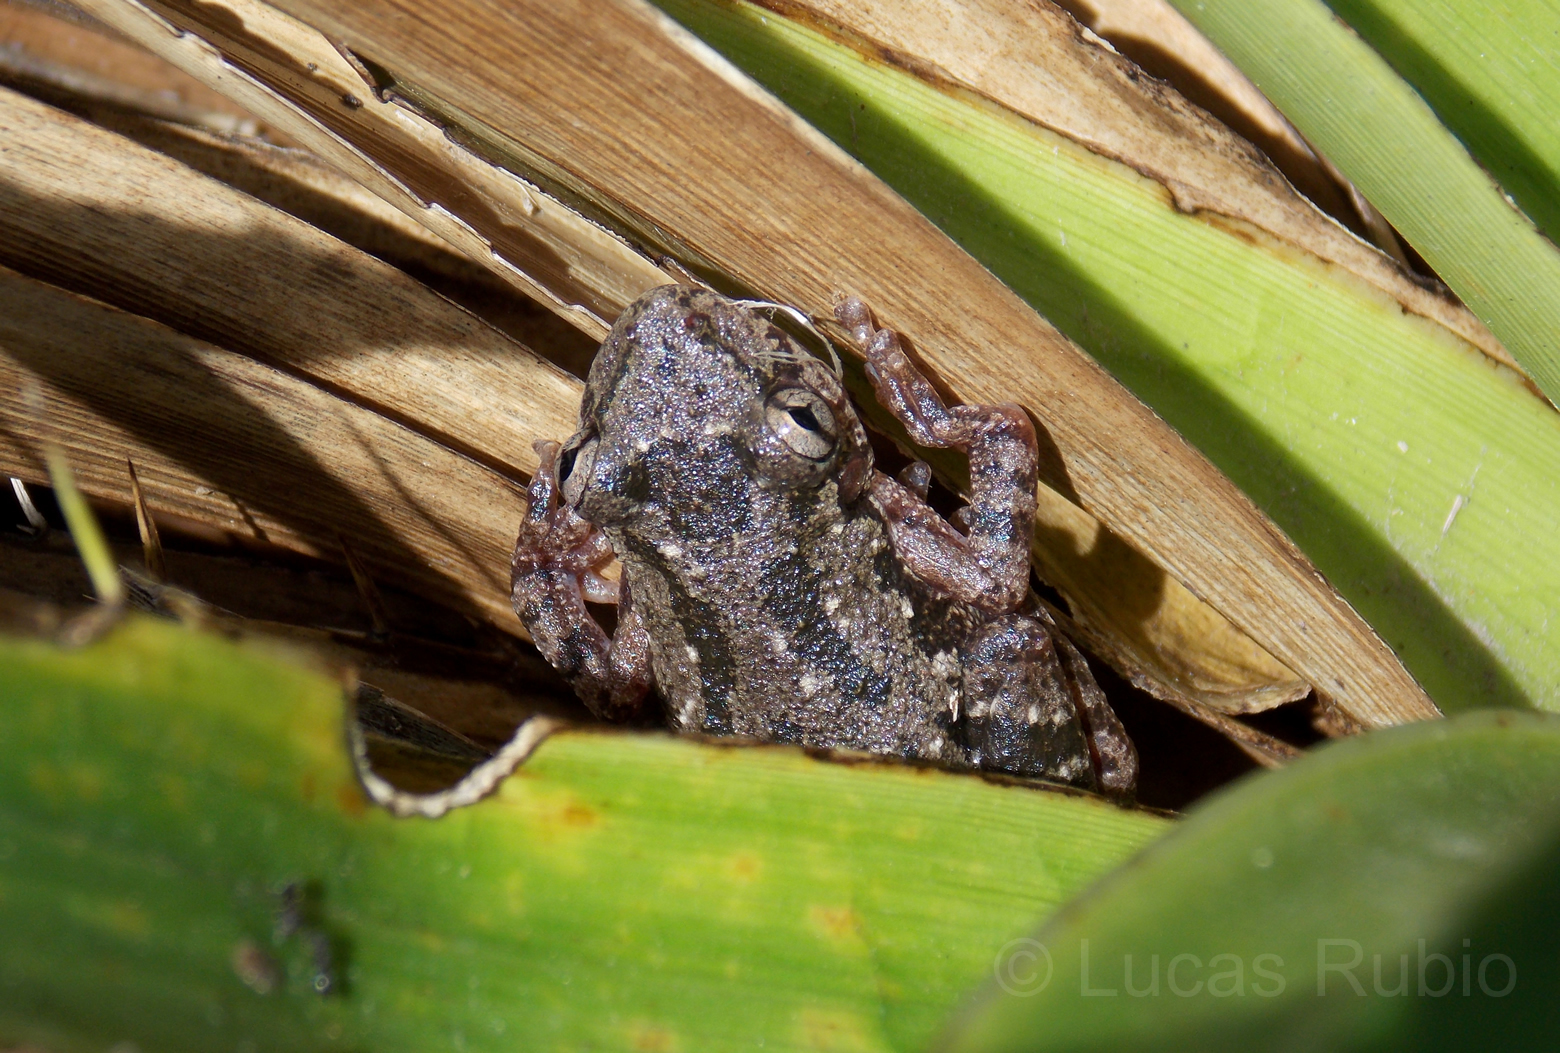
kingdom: Animalia
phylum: Chordata
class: Amphibia
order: Anura
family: Hylidae
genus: Scinax
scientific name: Scinax nasicus
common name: Lesser snouted treefrog
